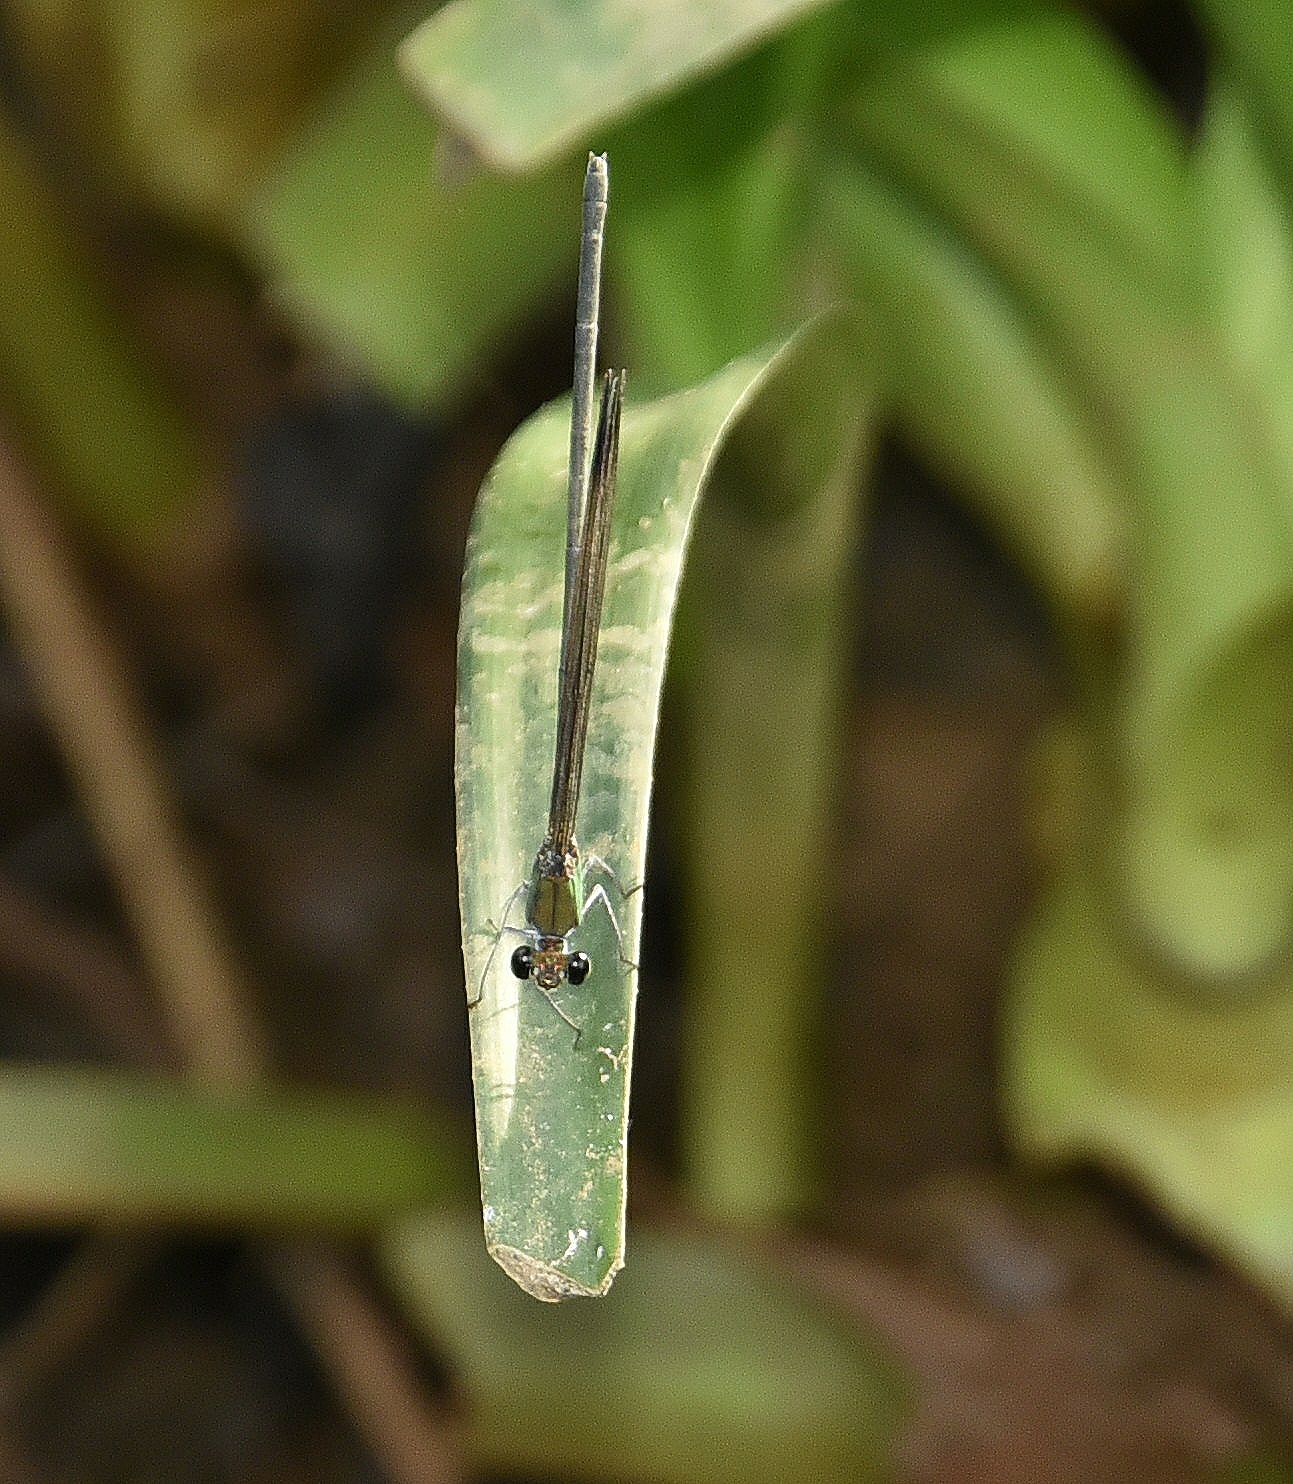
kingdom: Animalia
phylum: Arthropoda
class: Insecta
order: Odonata
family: Calopterygidae
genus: Vestalis
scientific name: Vestalis apicalis
